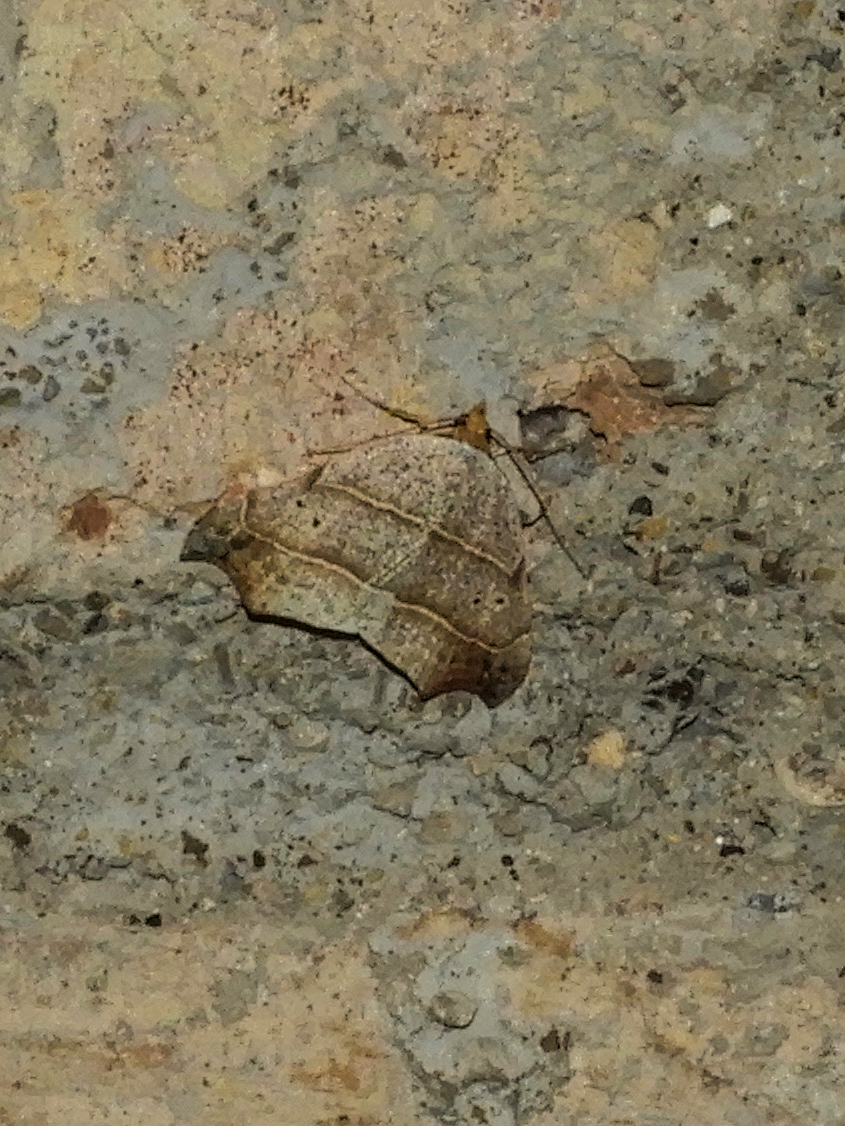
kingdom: Animalia
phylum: Arthropoda
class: Insecta
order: Lepidoptera
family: Erebidae
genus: Laspeyria
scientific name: Laspeyria flexula
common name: Beautiful hook-tip
